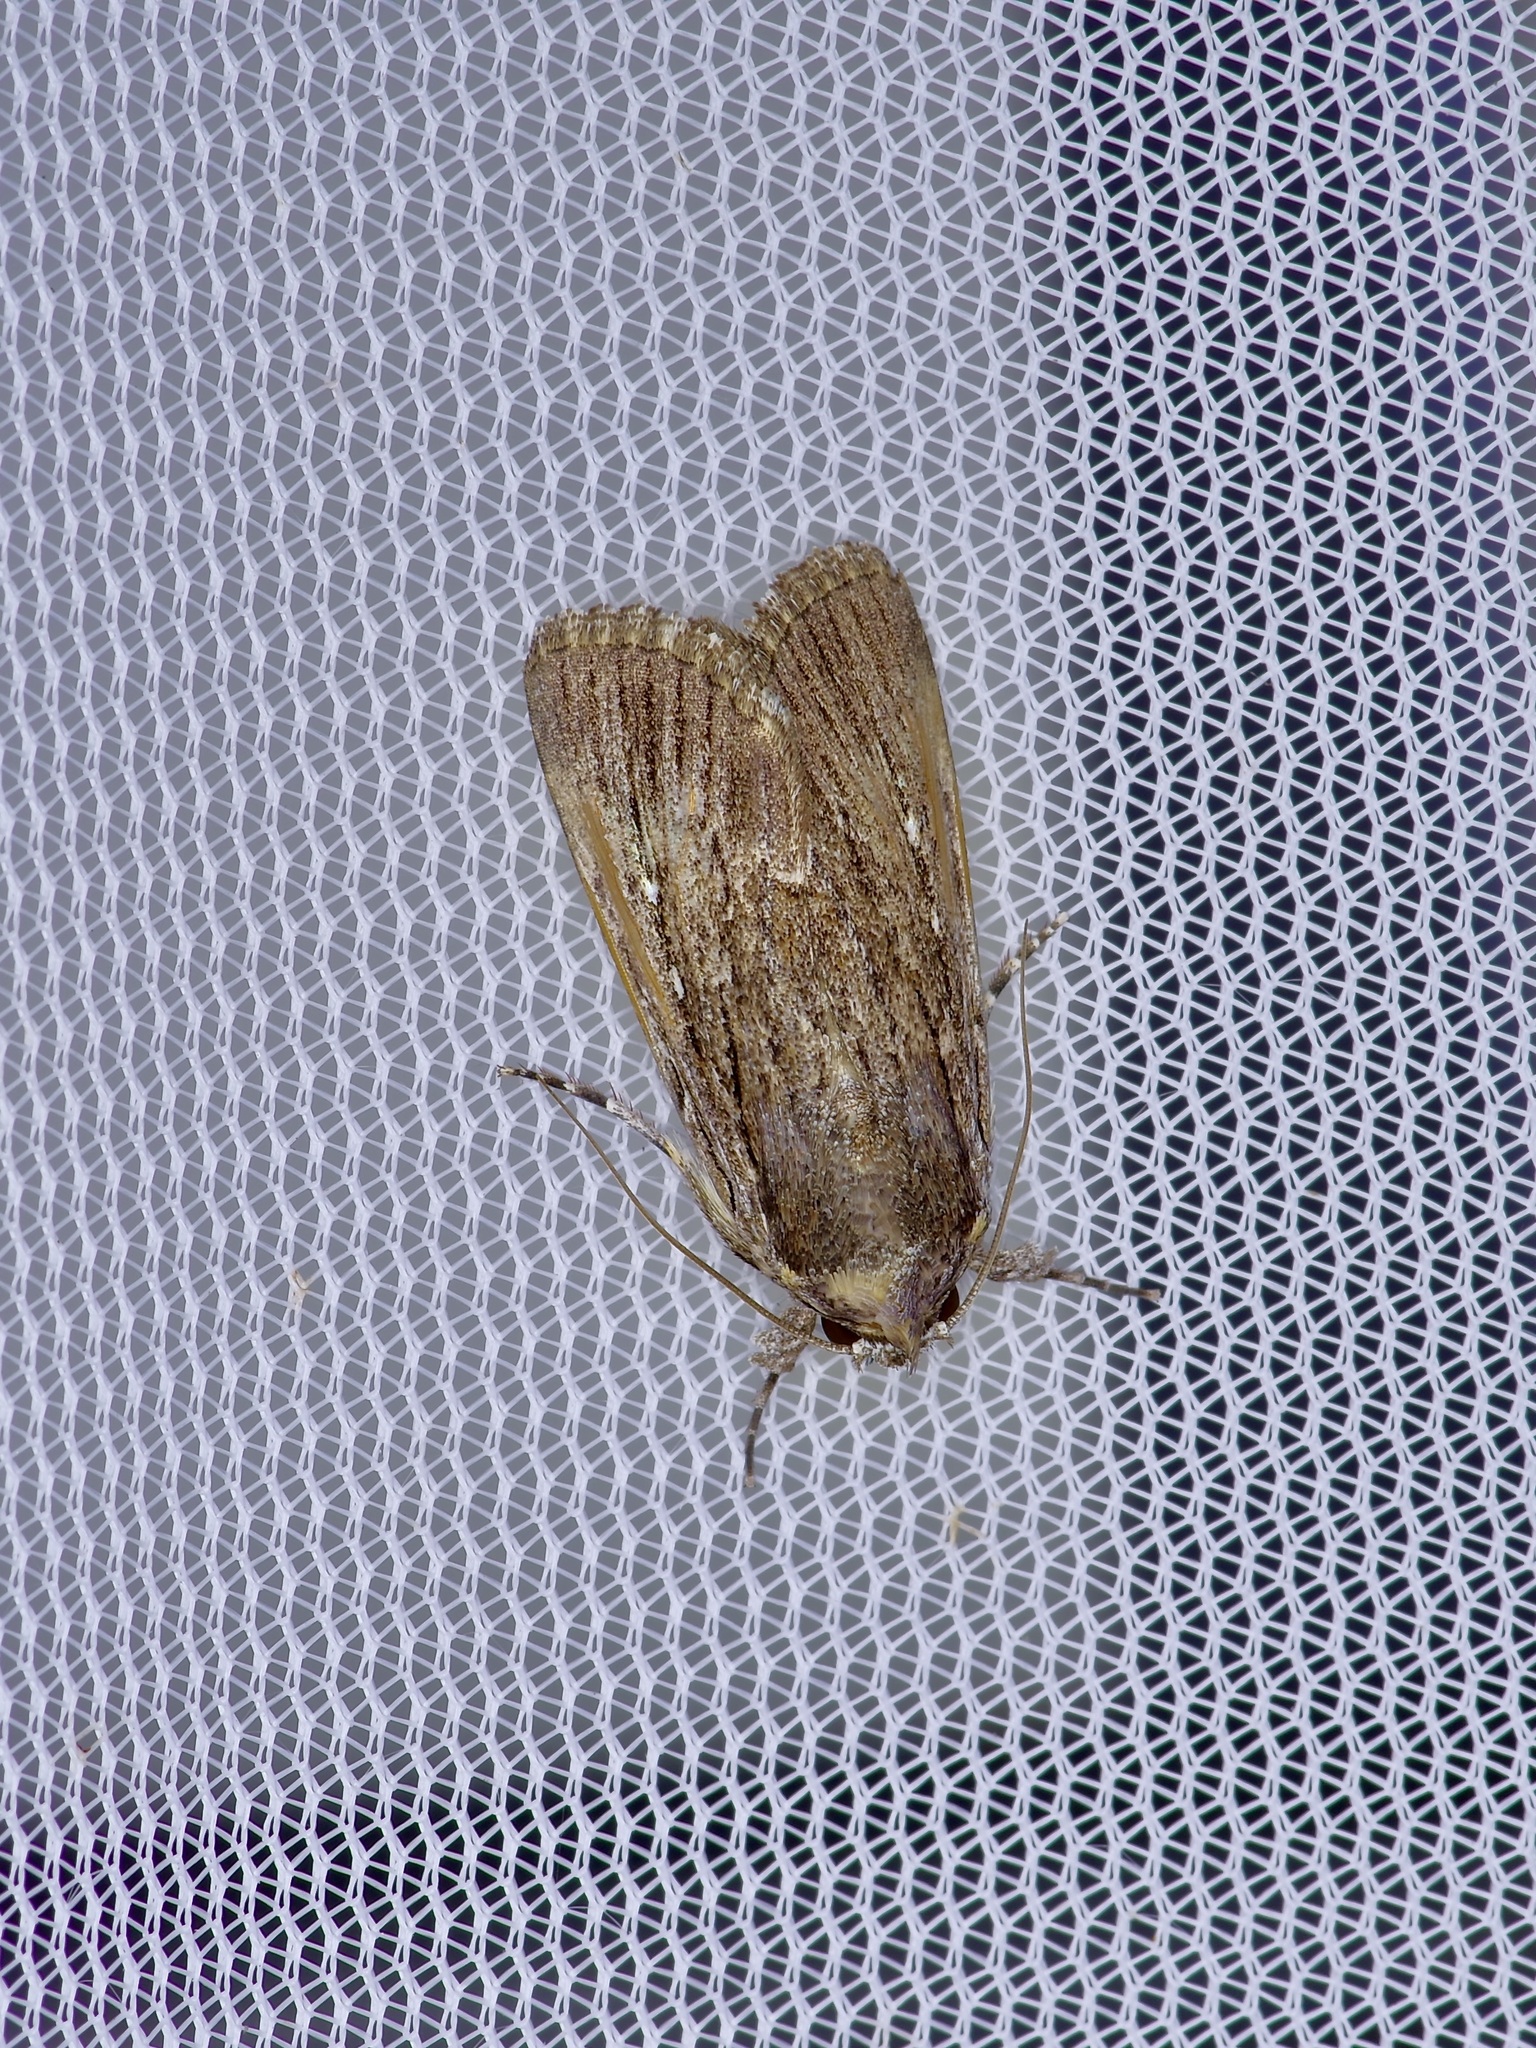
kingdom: Animalia
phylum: Arthropoda
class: Insecta
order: Lepidoptera
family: Noctuidae
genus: Neogalea
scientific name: Neogalea sunia
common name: Lantana stick caterpillar
